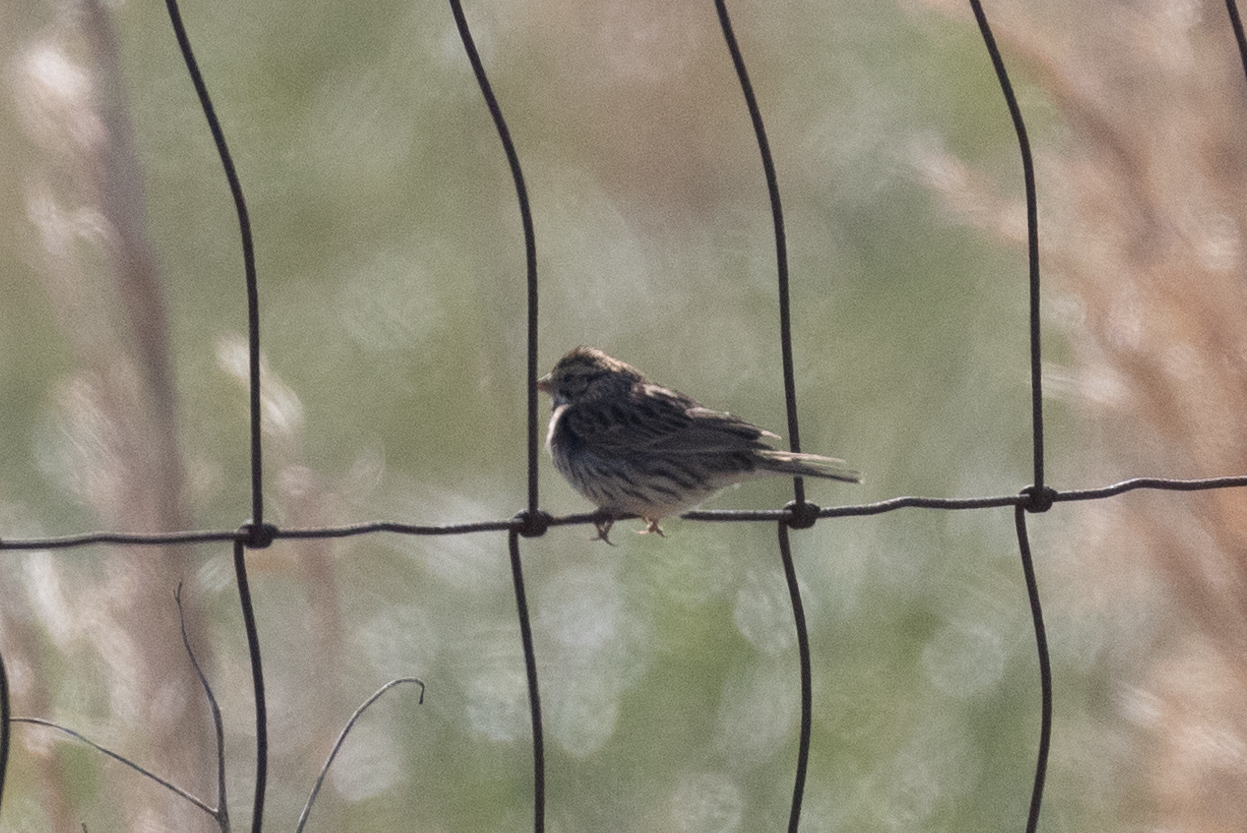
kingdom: Animalia
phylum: Chordata
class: Aves
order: Passeriformes
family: Passerellidae
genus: Passerculus
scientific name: Passerculus sandwichensis
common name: Savannah sparrow
